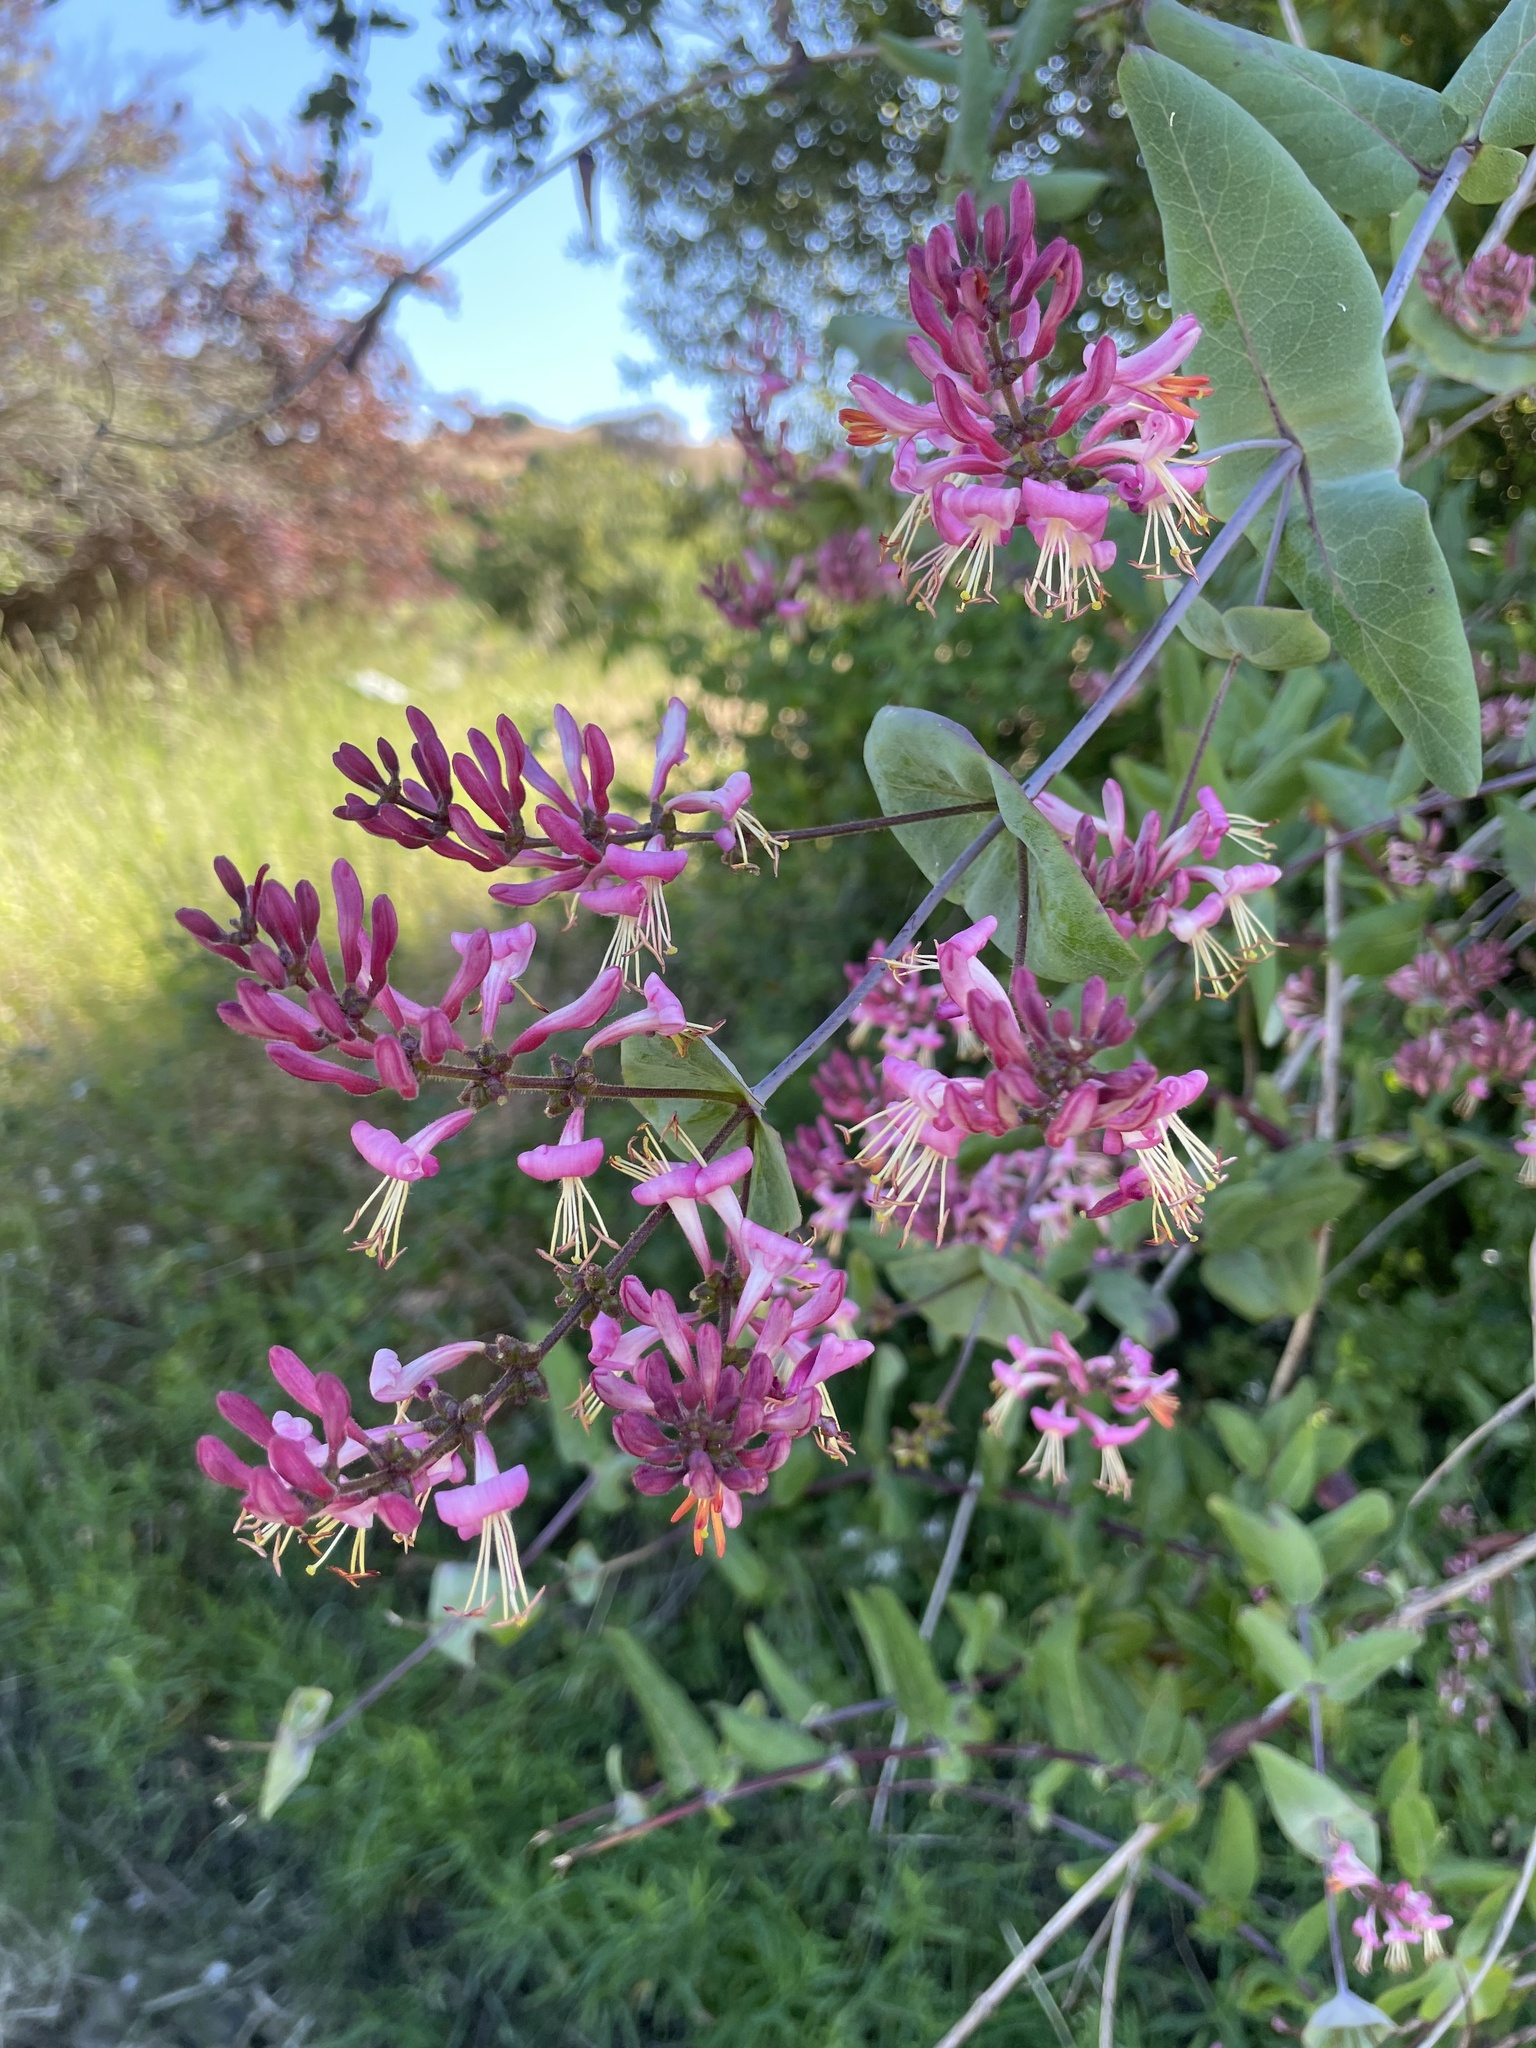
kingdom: Plantae
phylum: Tracheophyta
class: Magnoliopsida
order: Dipsacales
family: Caprifoliaceae
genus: Lonicera
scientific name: Lonicera hispidula
